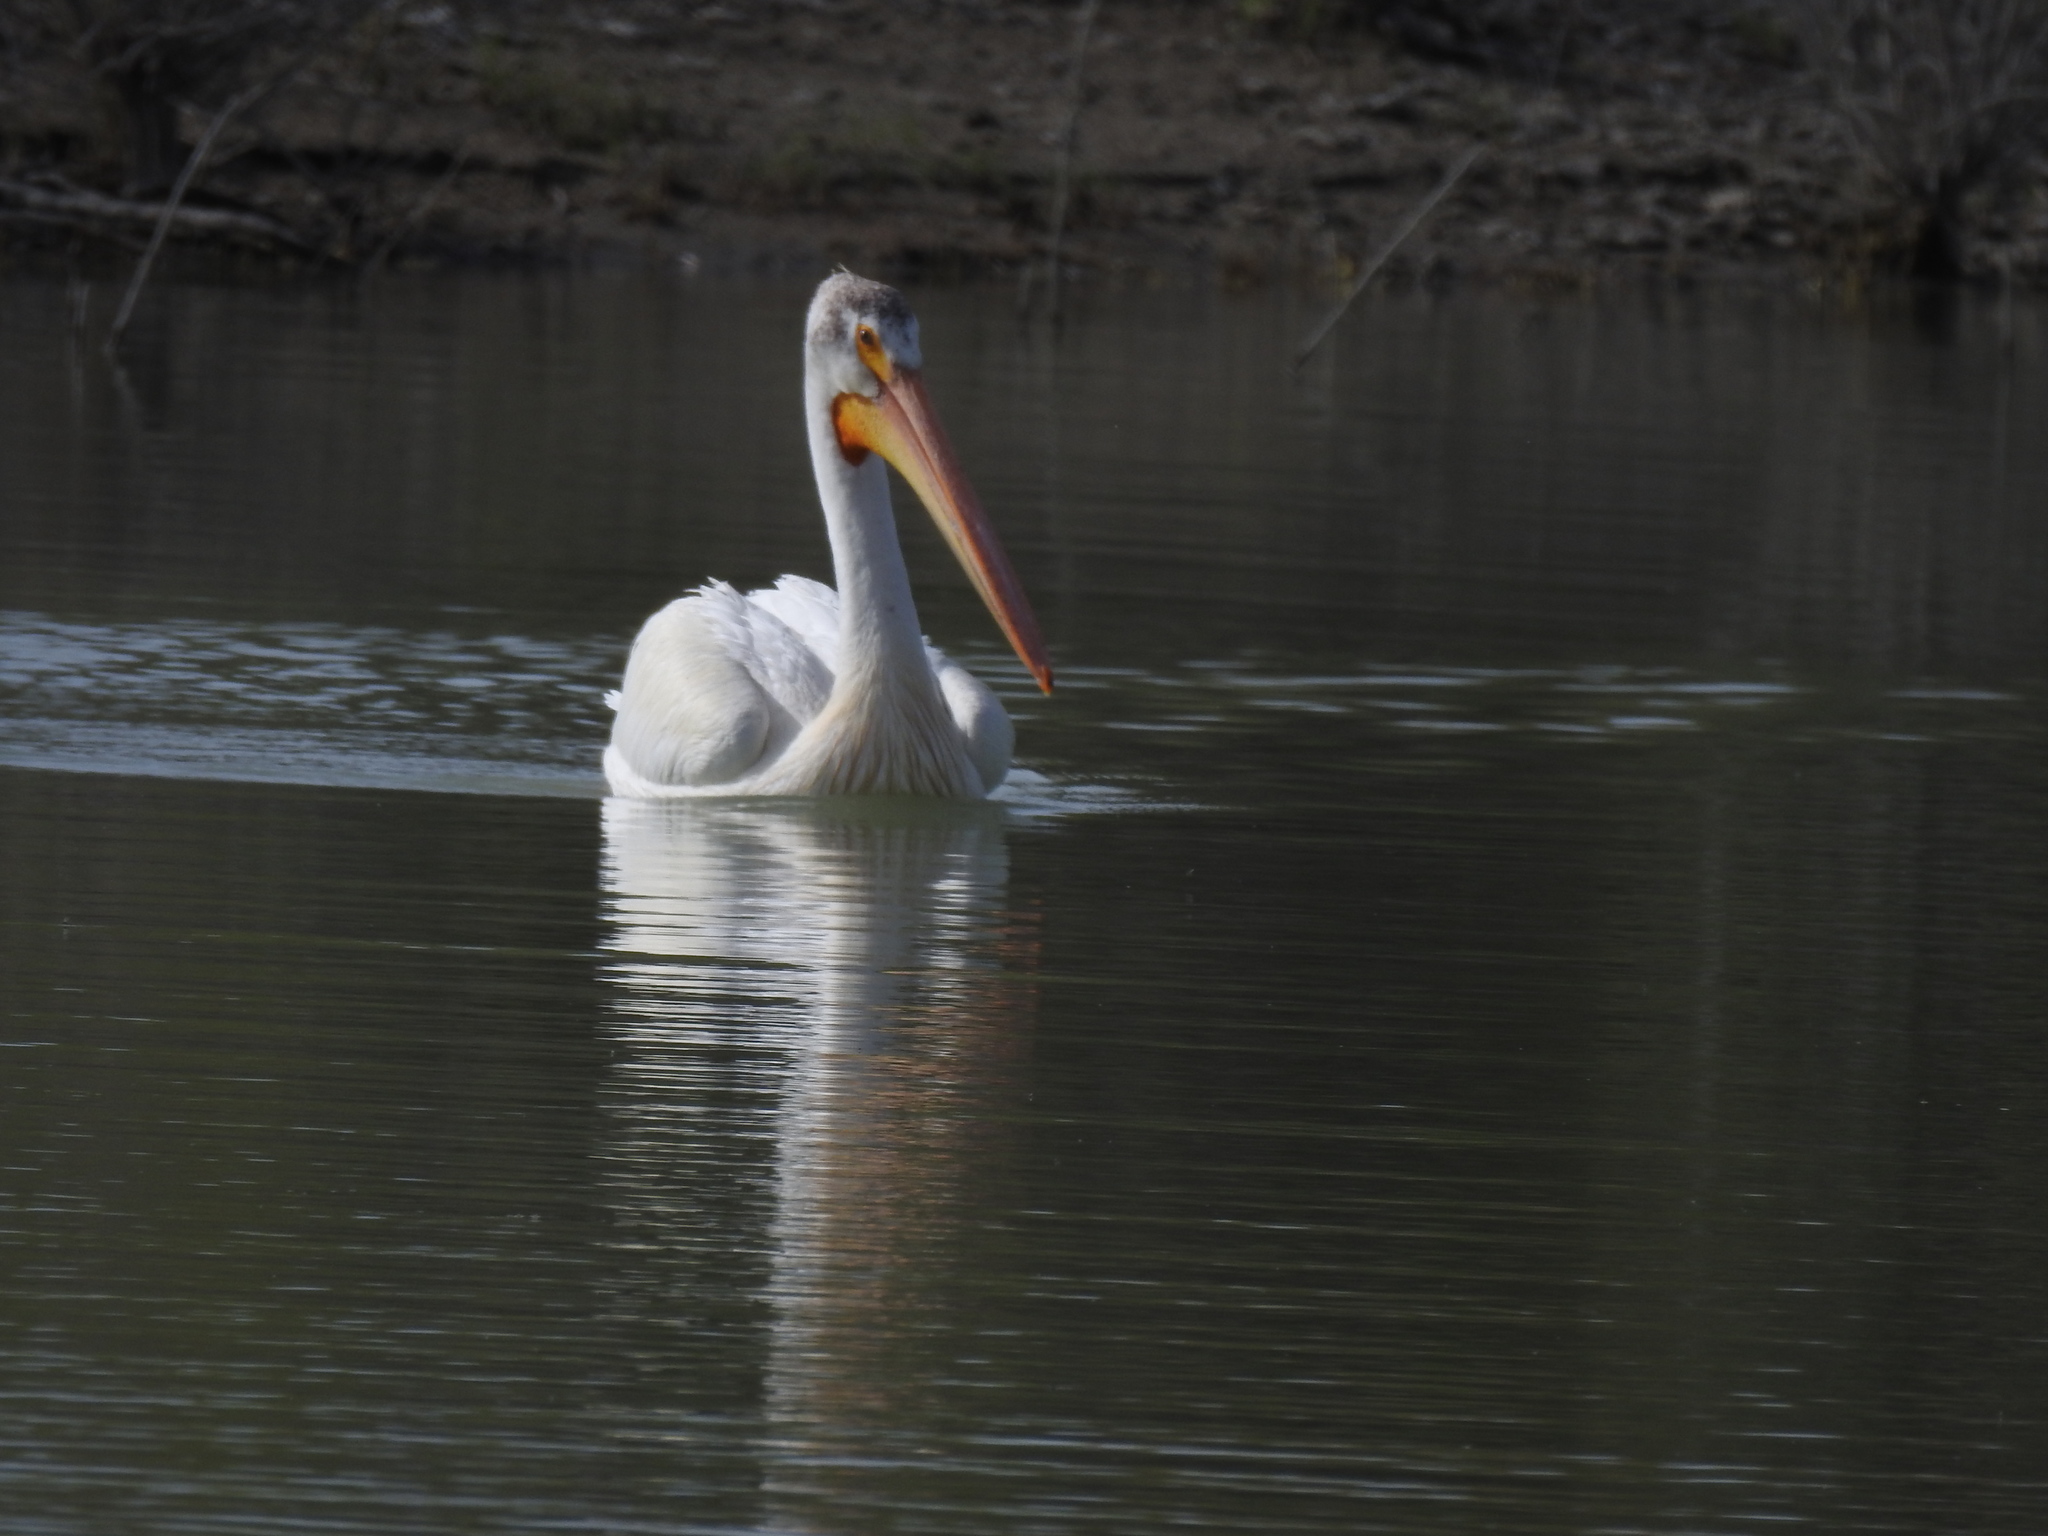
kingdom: Animalia
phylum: Chordata
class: Aves
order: Pelecaniformes
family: Pelecanidae
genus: Pelecanus
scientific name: Pelecanus erythrorhynchos
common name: American white pelican
